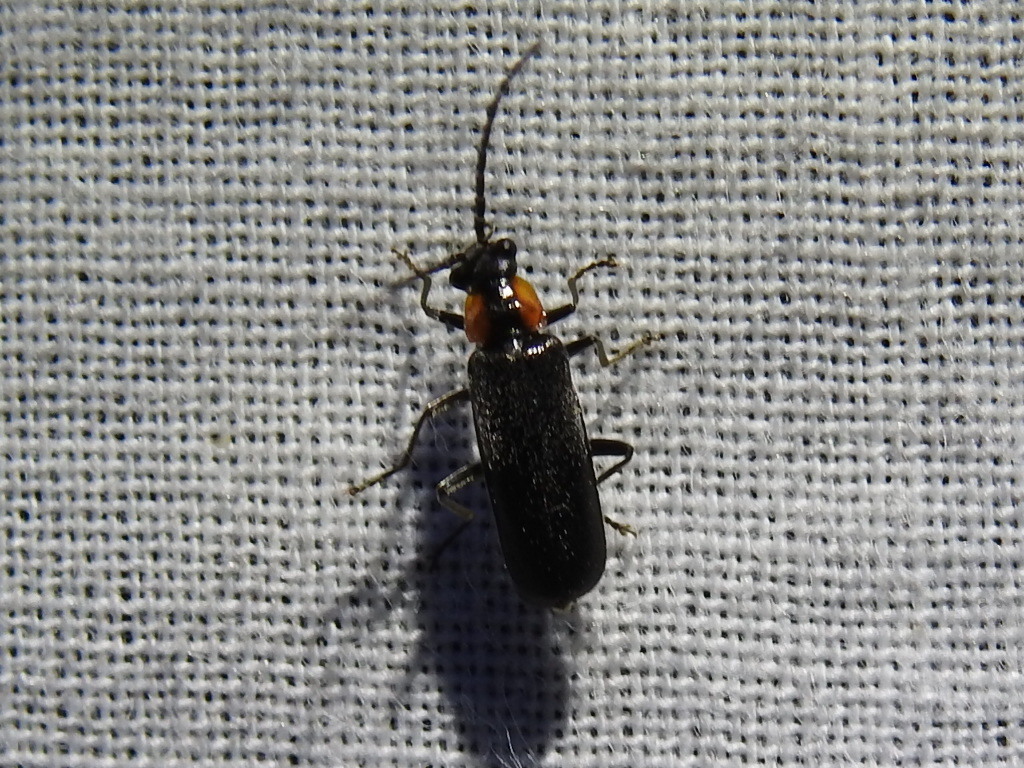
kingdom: Animalia
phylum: Arthropoda
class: Insecta
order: Coleoptera
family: Cantharidae
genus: Rhagonycha
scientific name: Rhagonycha lineola
